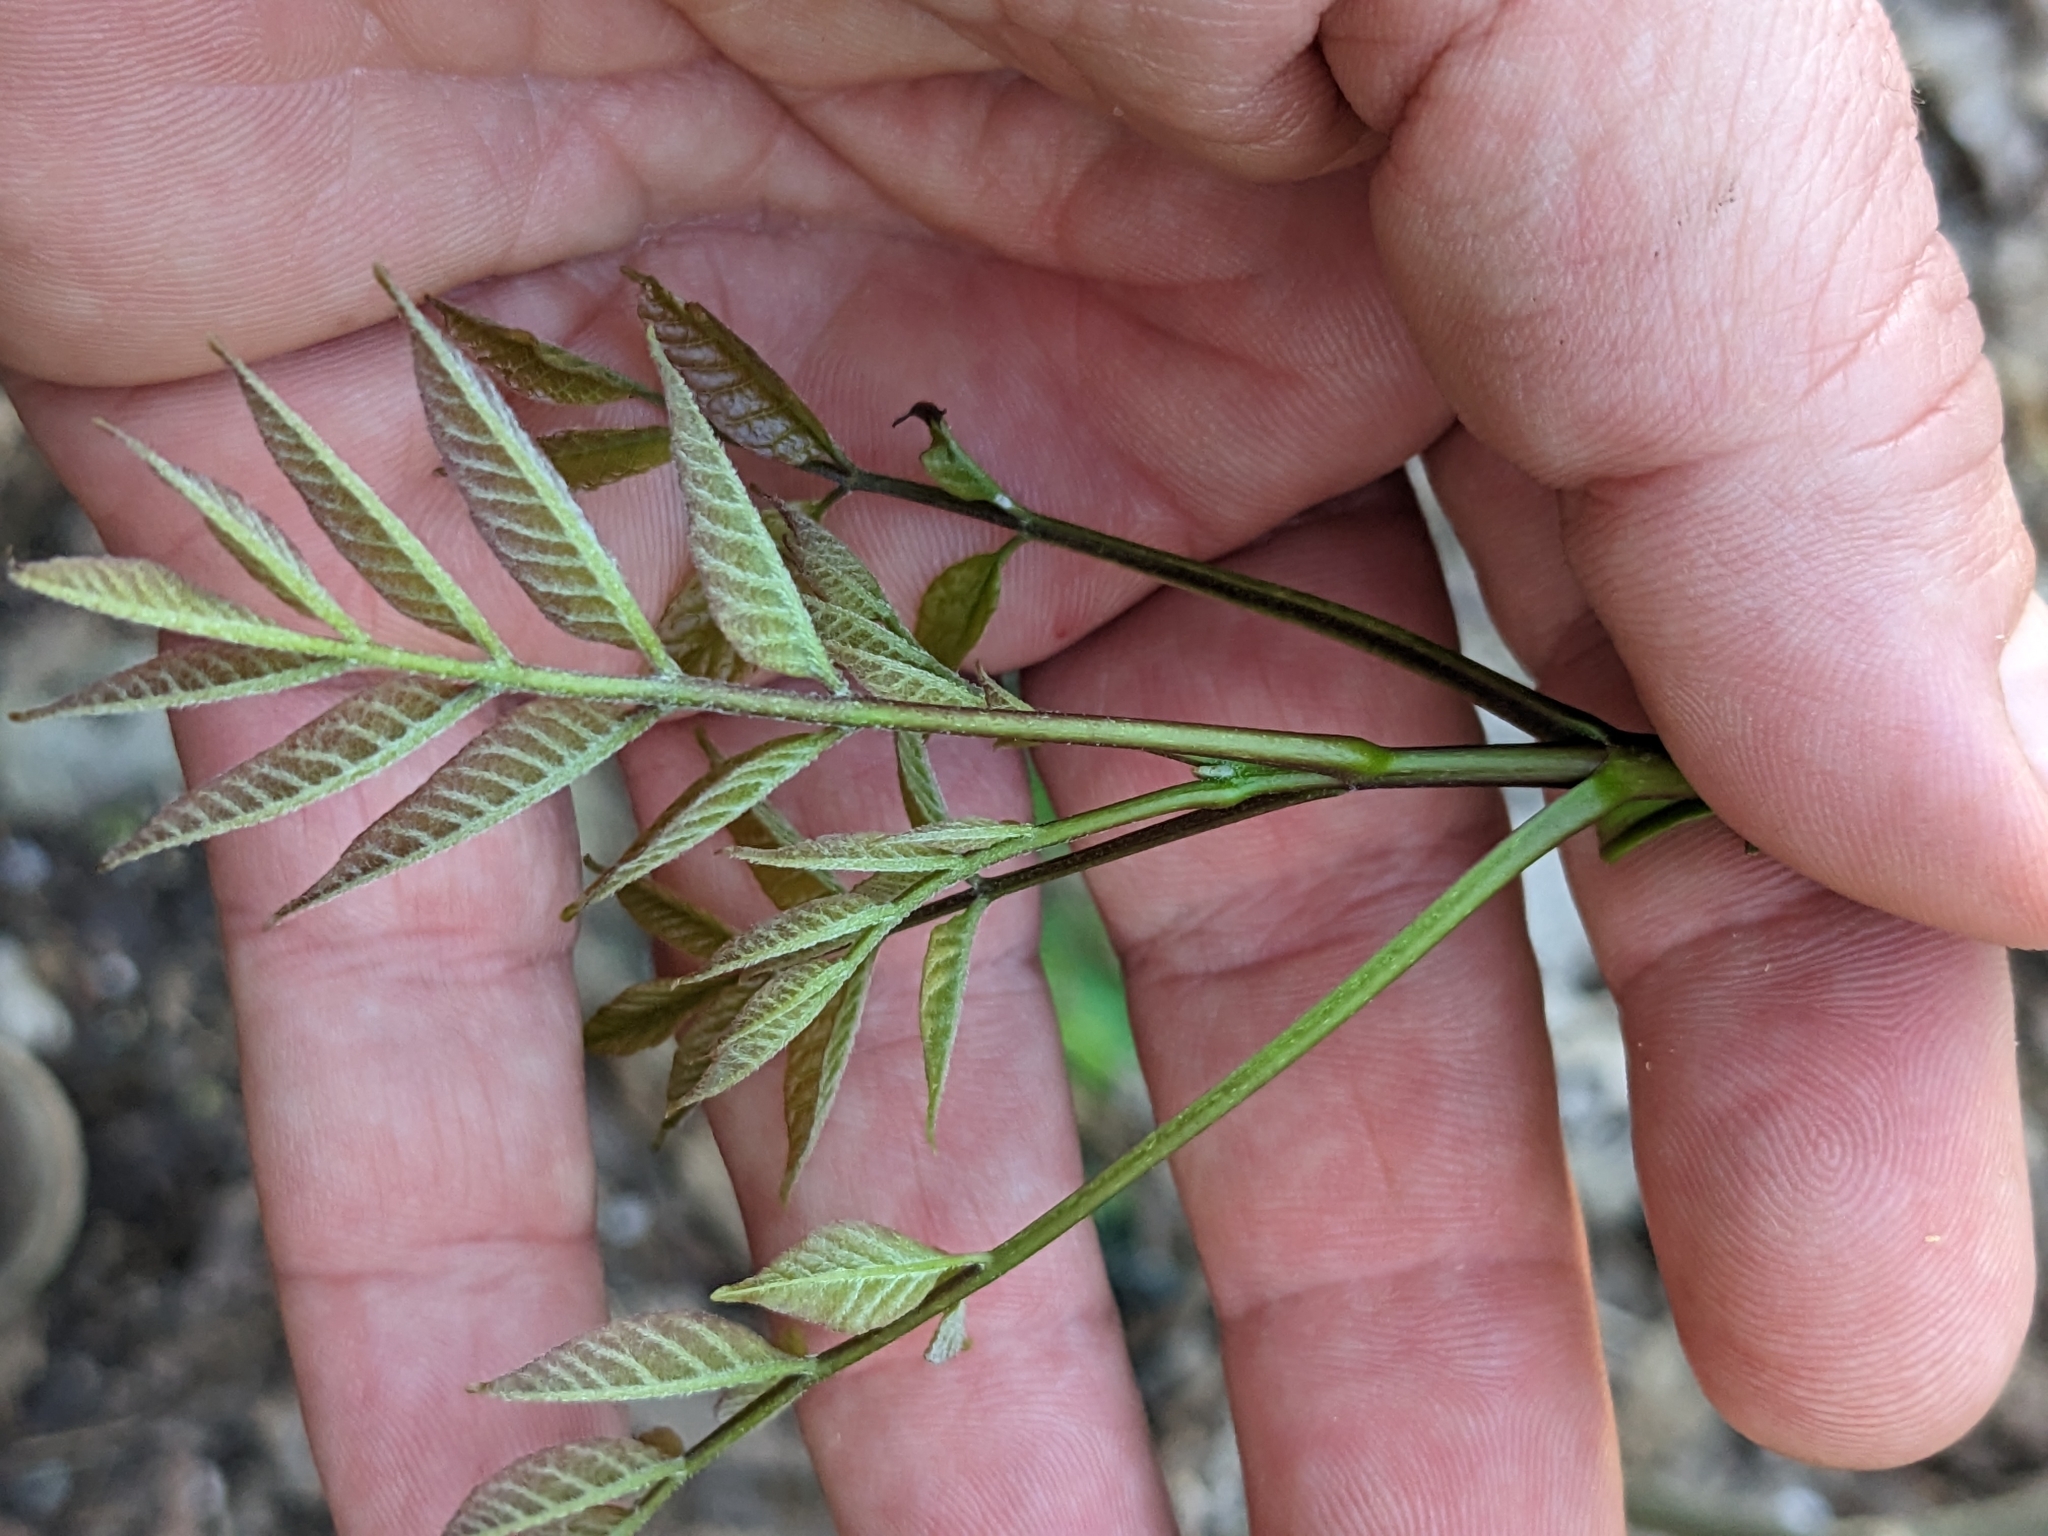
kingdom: Plantae
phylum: Tracheophyta
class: Magnoliopsida
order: Lamiales
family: Oleaceae
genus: Fraxinus
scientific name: Fraxinus americana
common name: White ash
